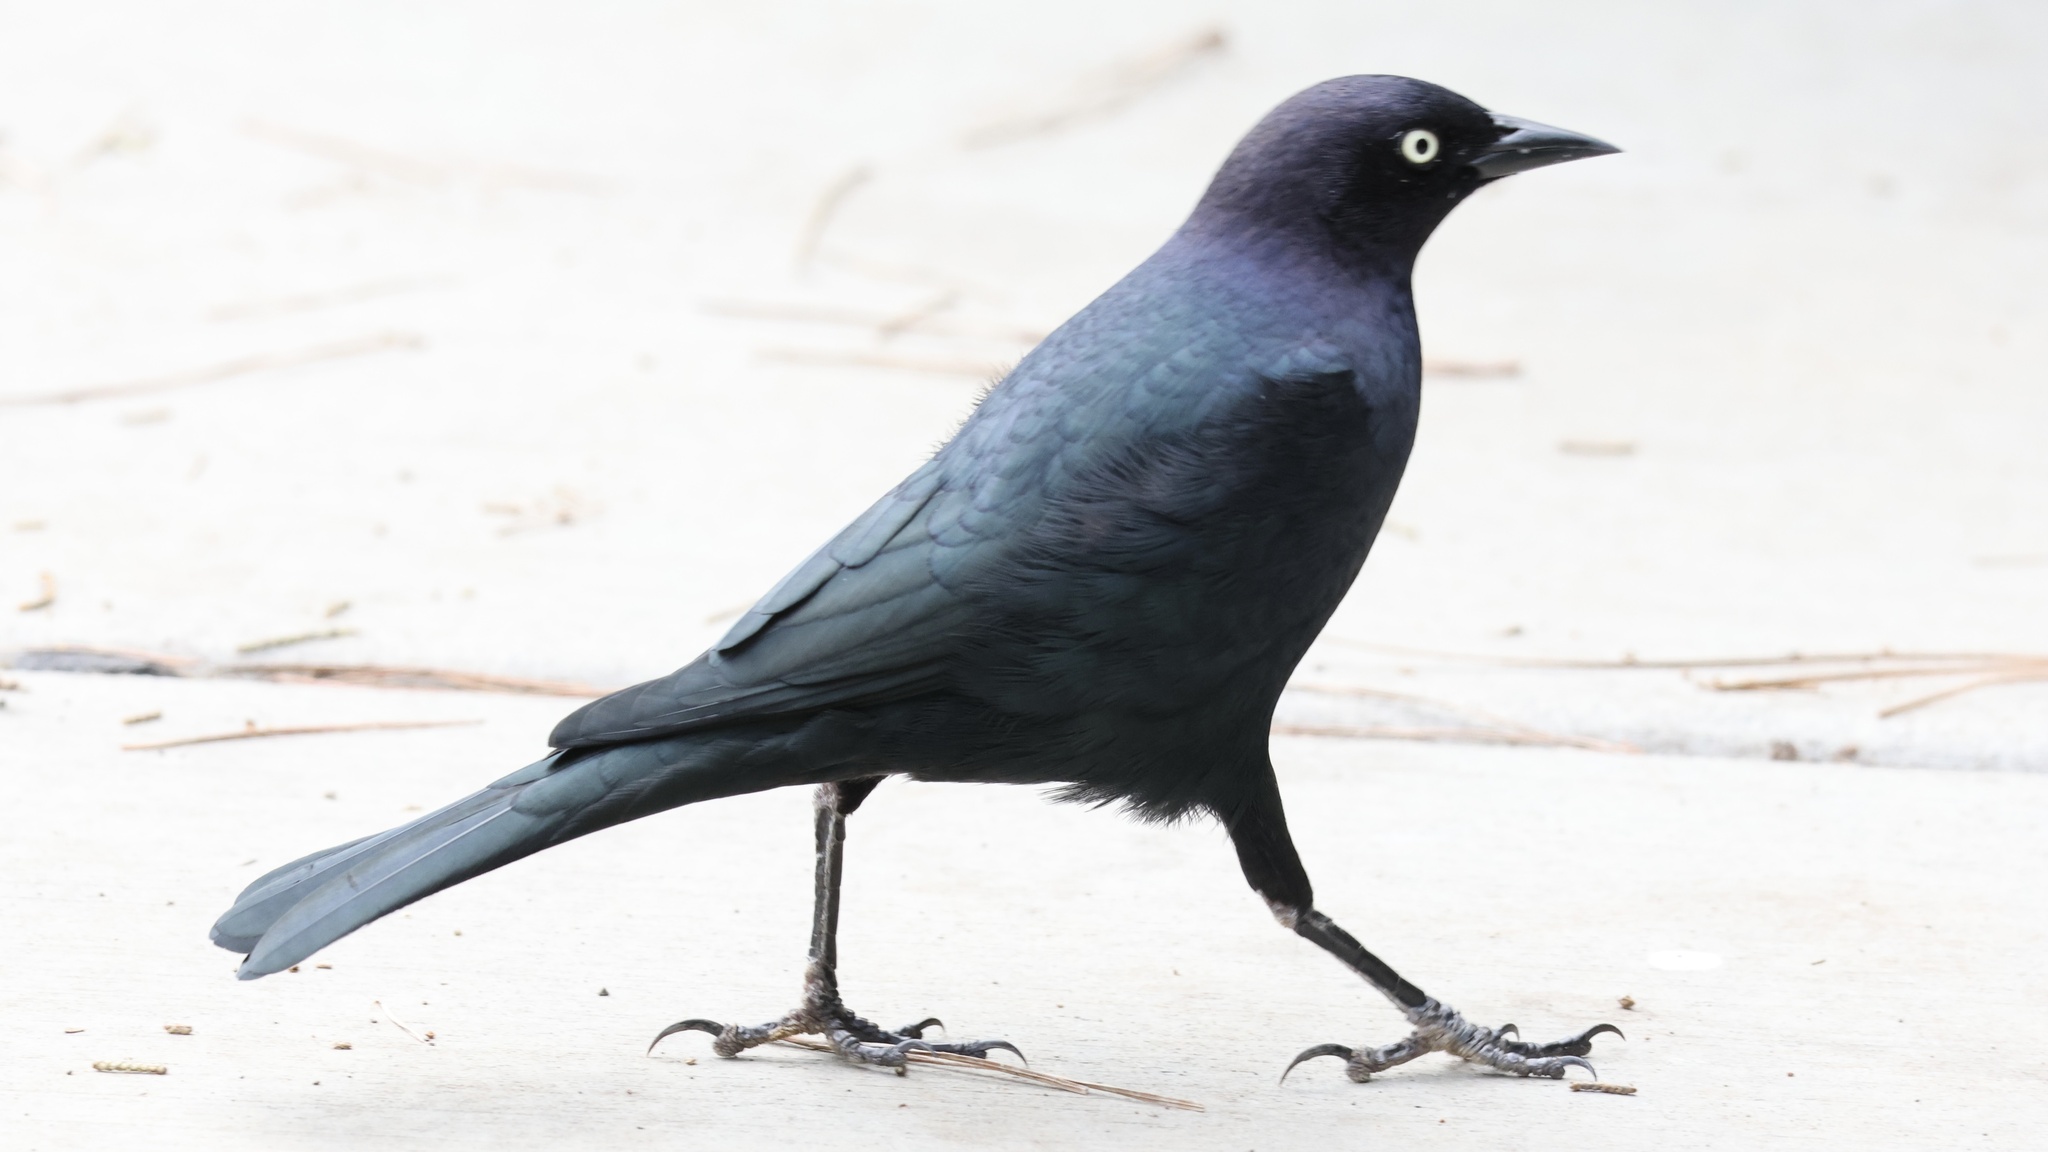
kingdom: Animalia
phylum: Chordata
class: Aves
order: Passeriformes
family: Icteridae
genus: Euphagus
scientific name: Euphagus cyanocephalus
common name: Brewer's blackbird
